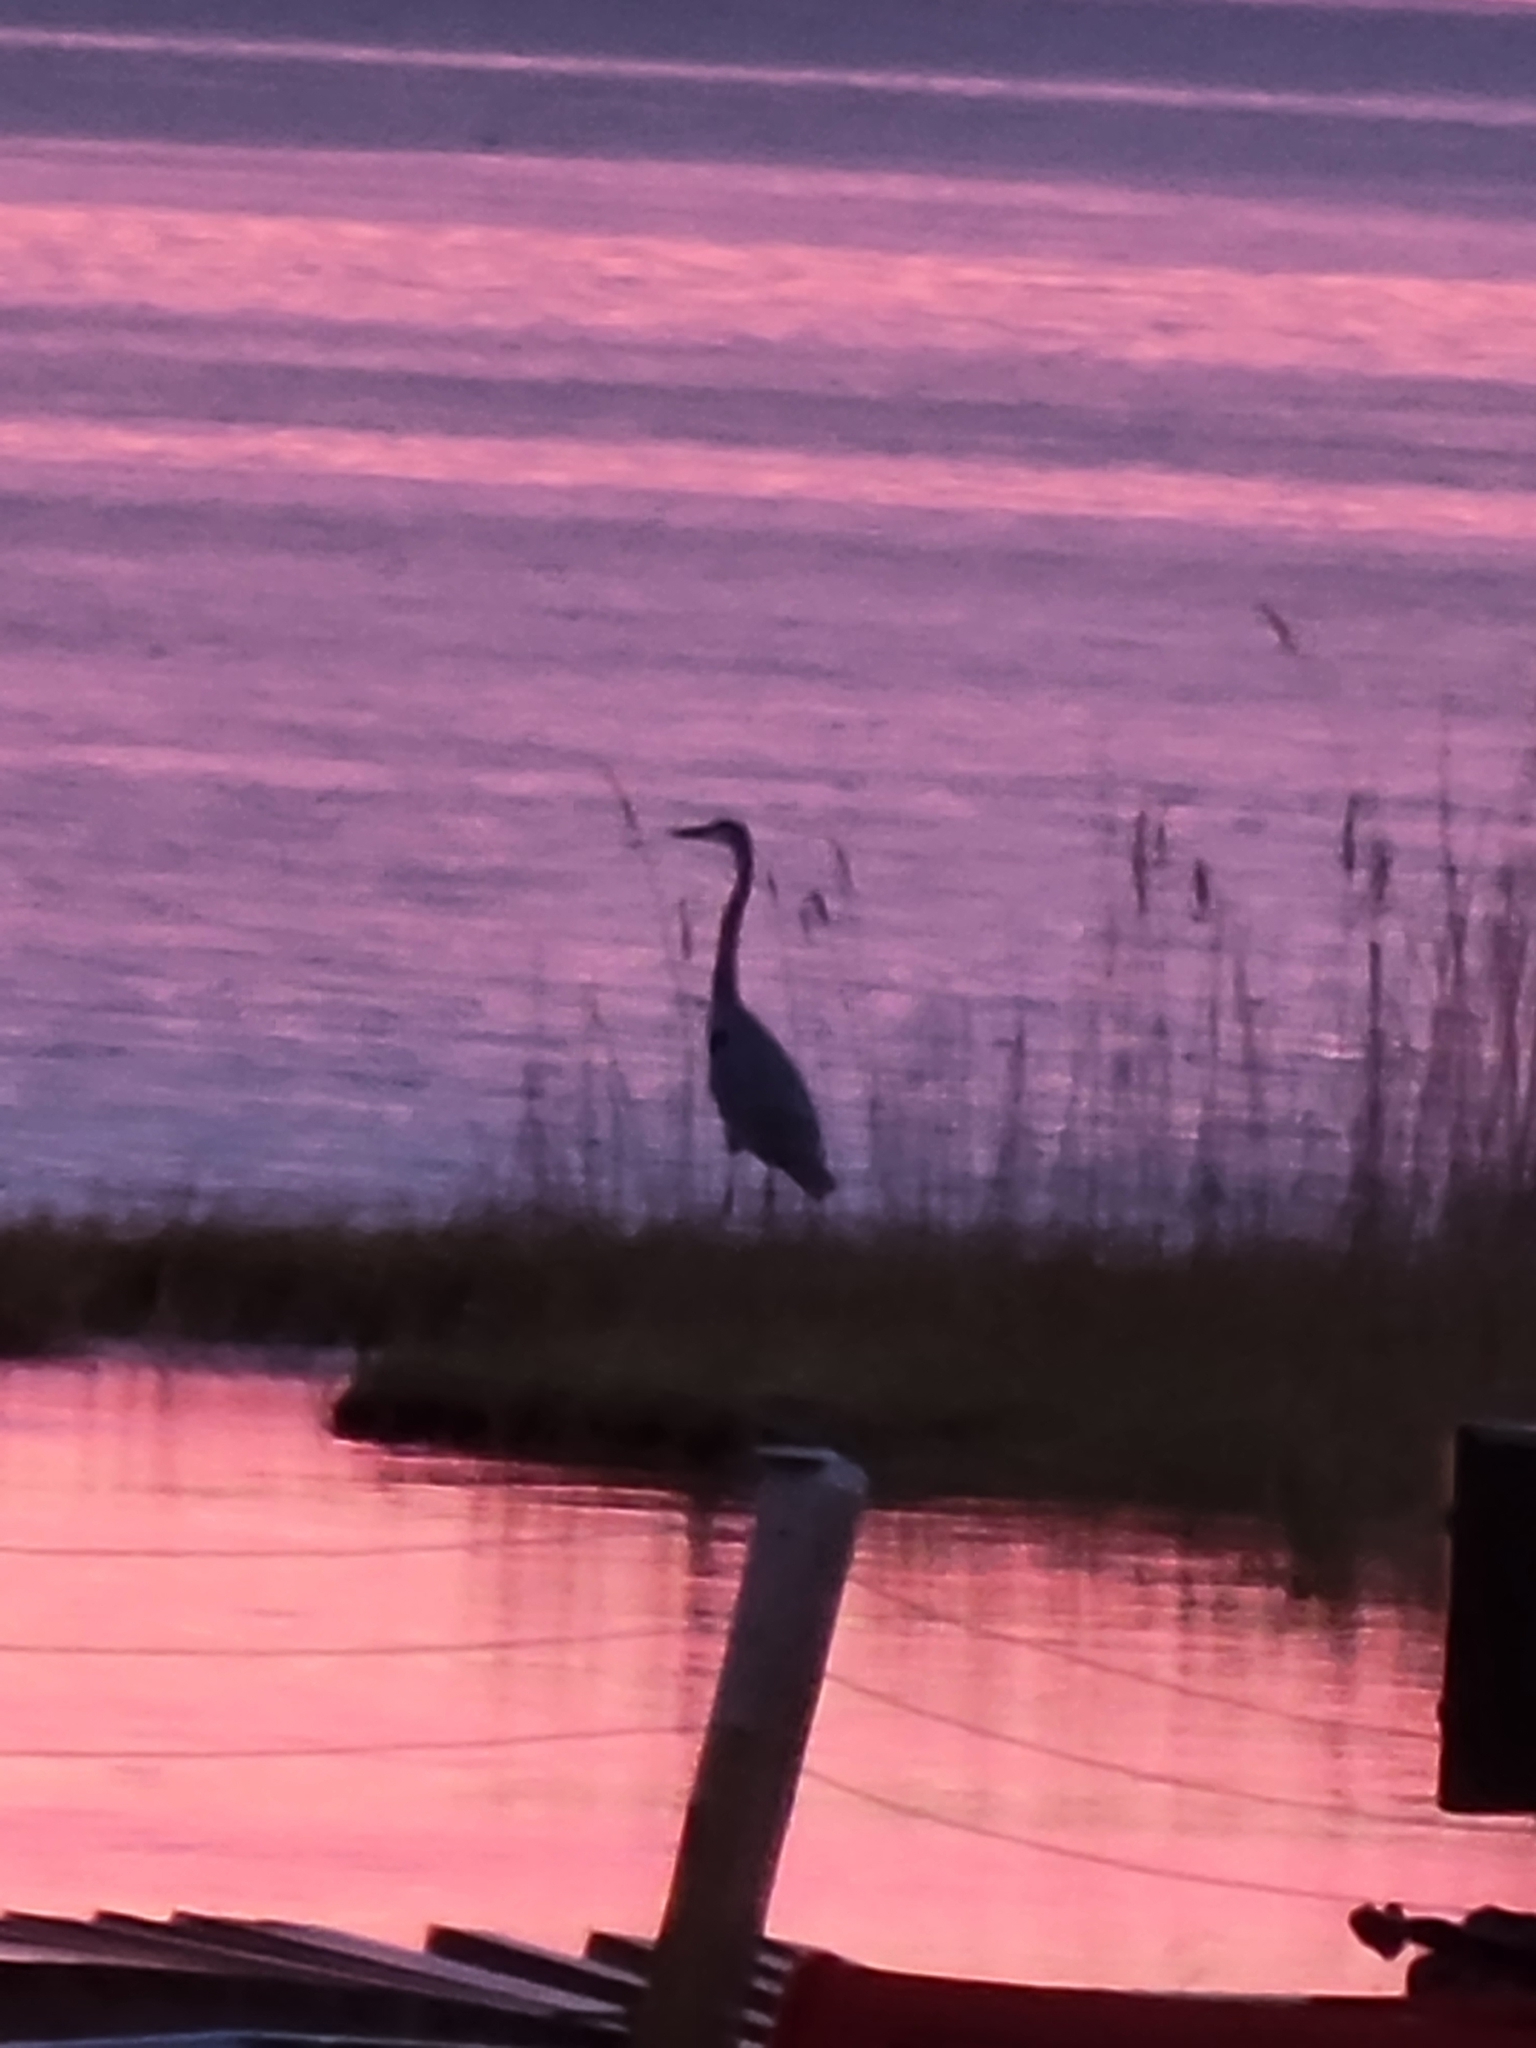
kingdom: Animalia
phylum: Chordata
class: Aves
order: Pelecaniformes
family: Ardeidae
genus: Ardea
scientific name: Ardea herodias
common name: Great blue heron
